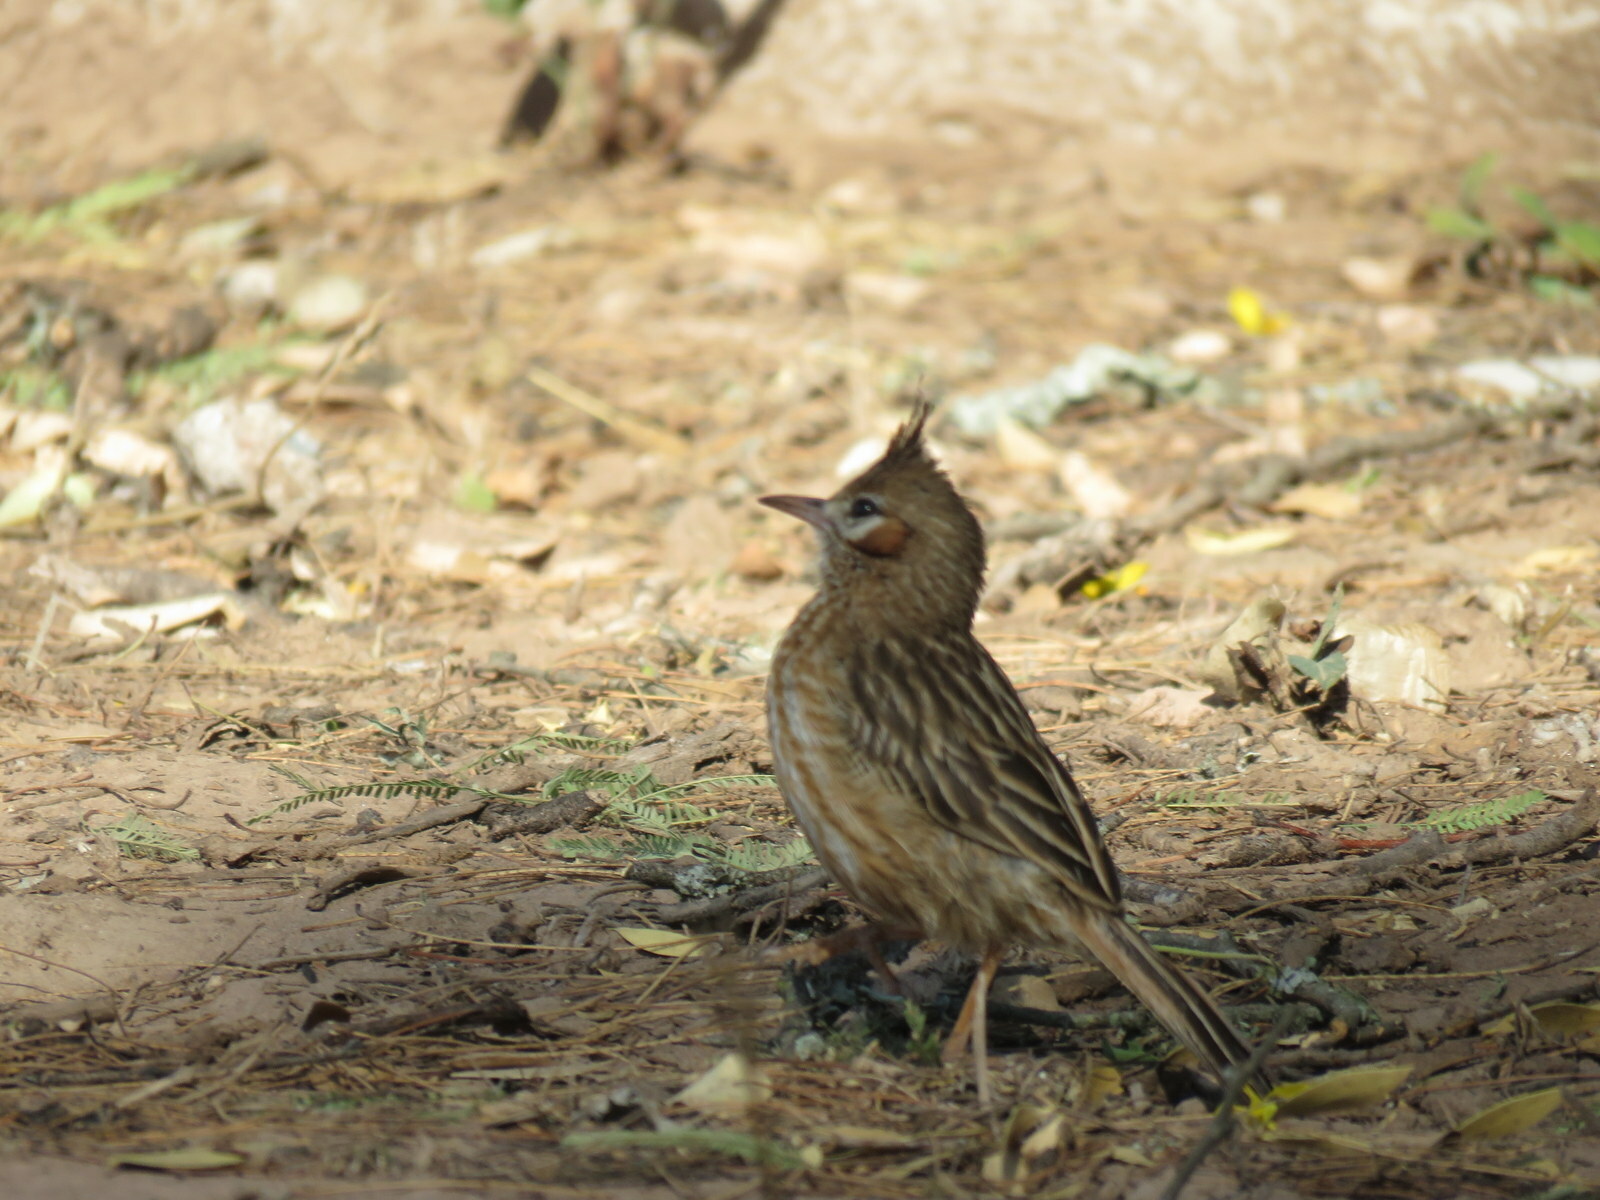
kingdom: Animalia
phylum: Chordata
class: Aves
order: Passeriformes
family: Furnariidae
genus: Coryphistera
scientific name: Coryphistera alaudina
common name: Lark-like brushrunner
